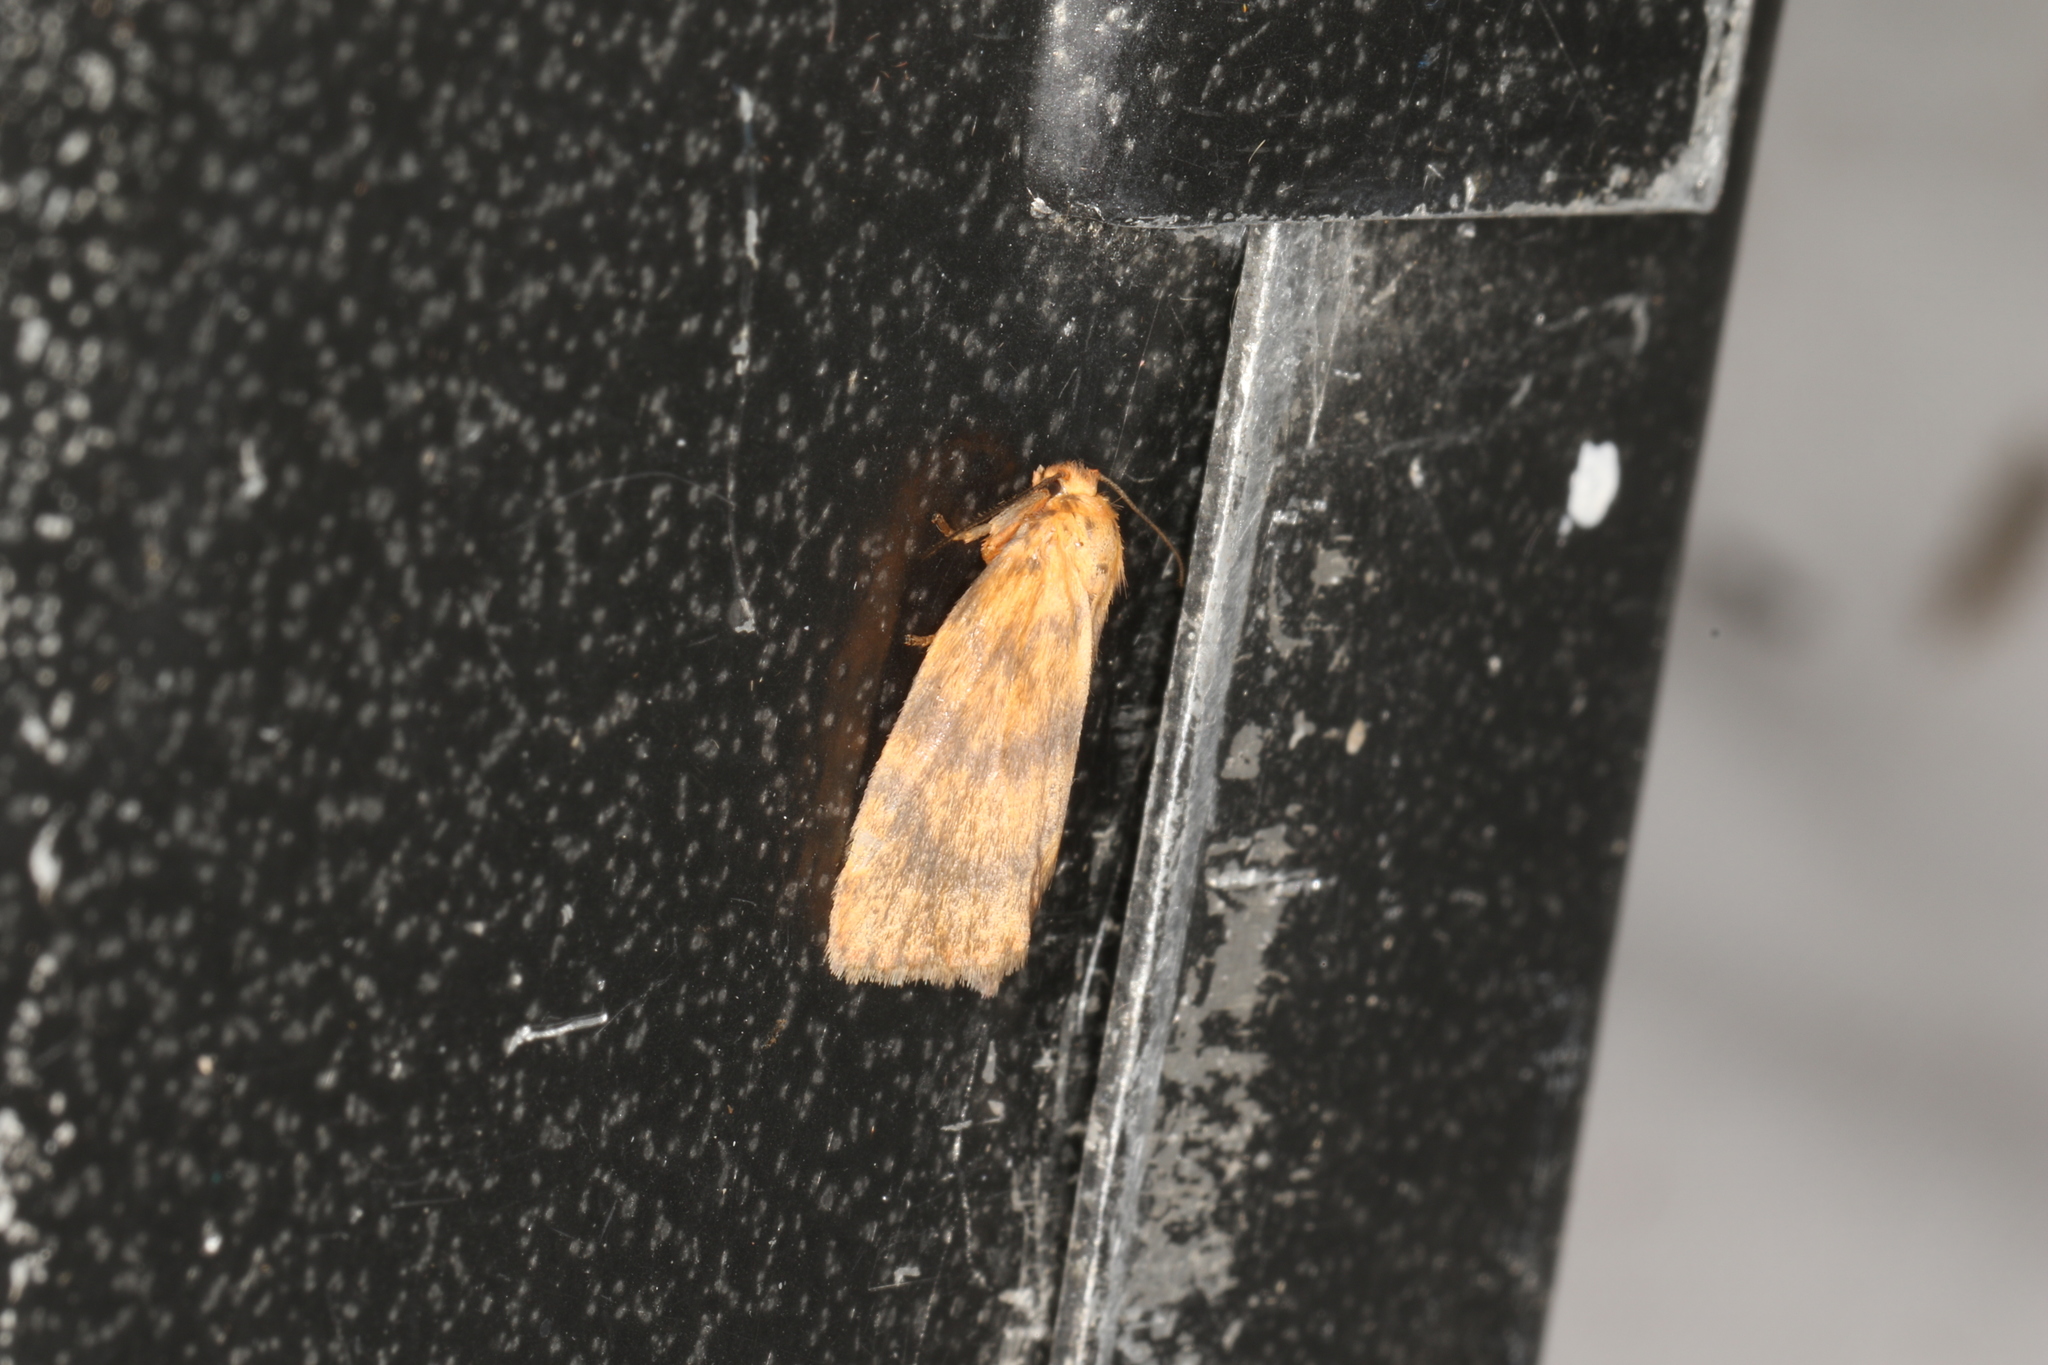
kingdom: Animalia
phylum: Arthropoda
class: Insecta
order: Lepidoptera
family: Erebidae
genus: Cyme
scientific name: Cyme structa
